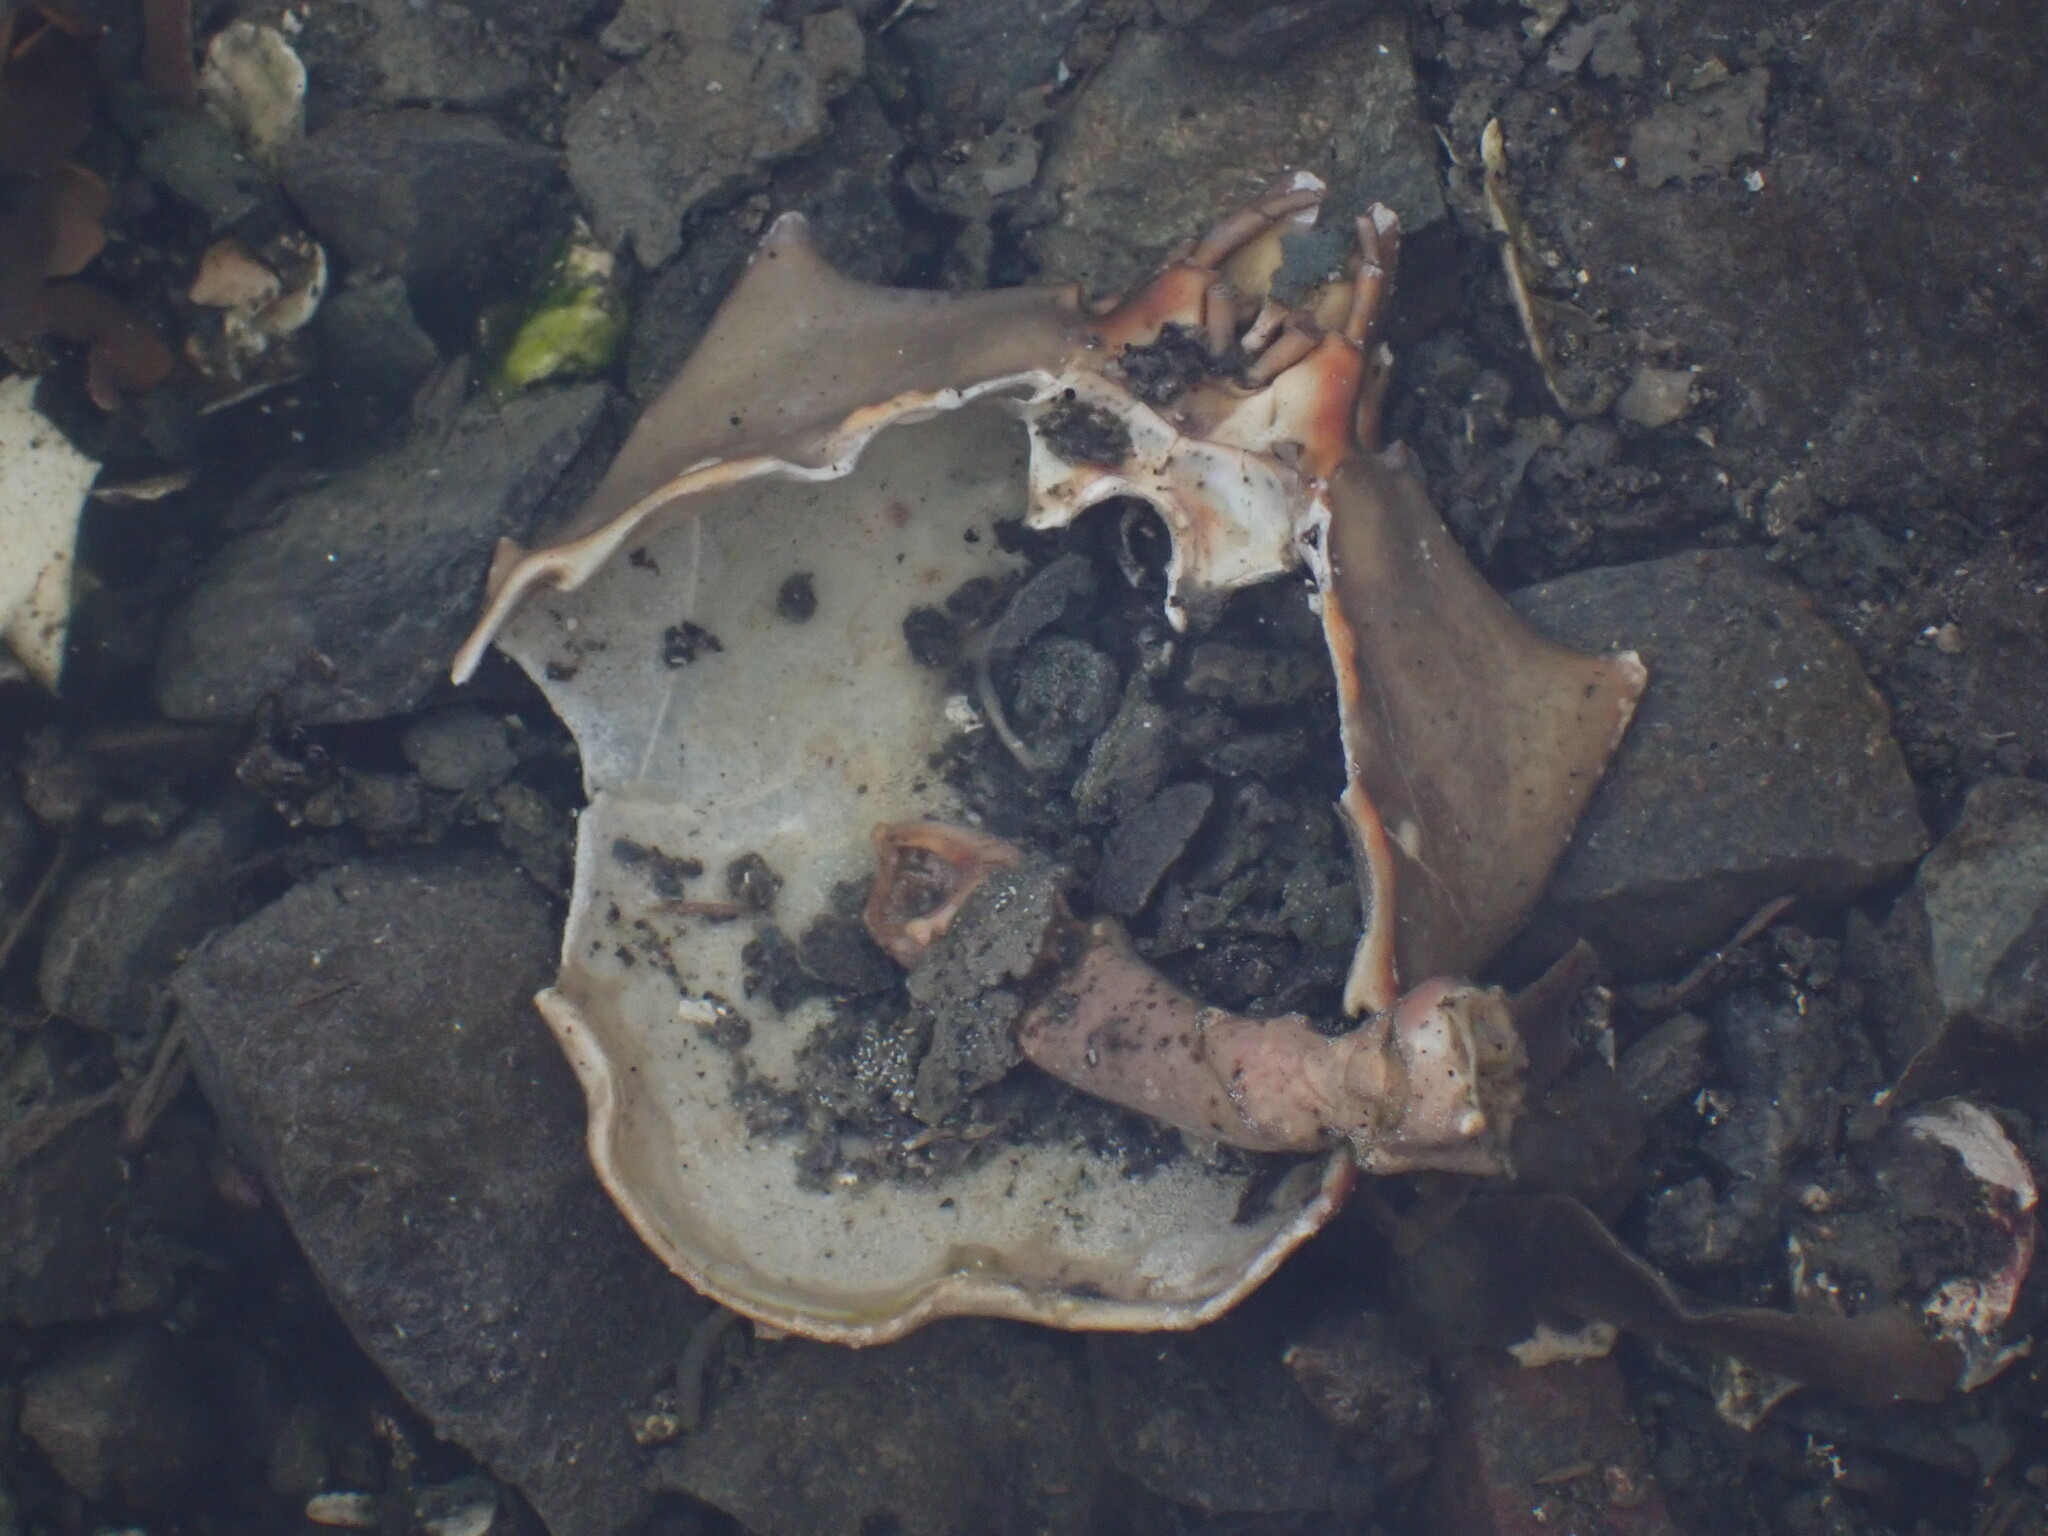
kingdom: Animalia
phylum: Arthropoda
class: Malacostraca
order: Decapoda
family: Epialtidae
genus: Pugettia
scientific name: Pugettia producta
